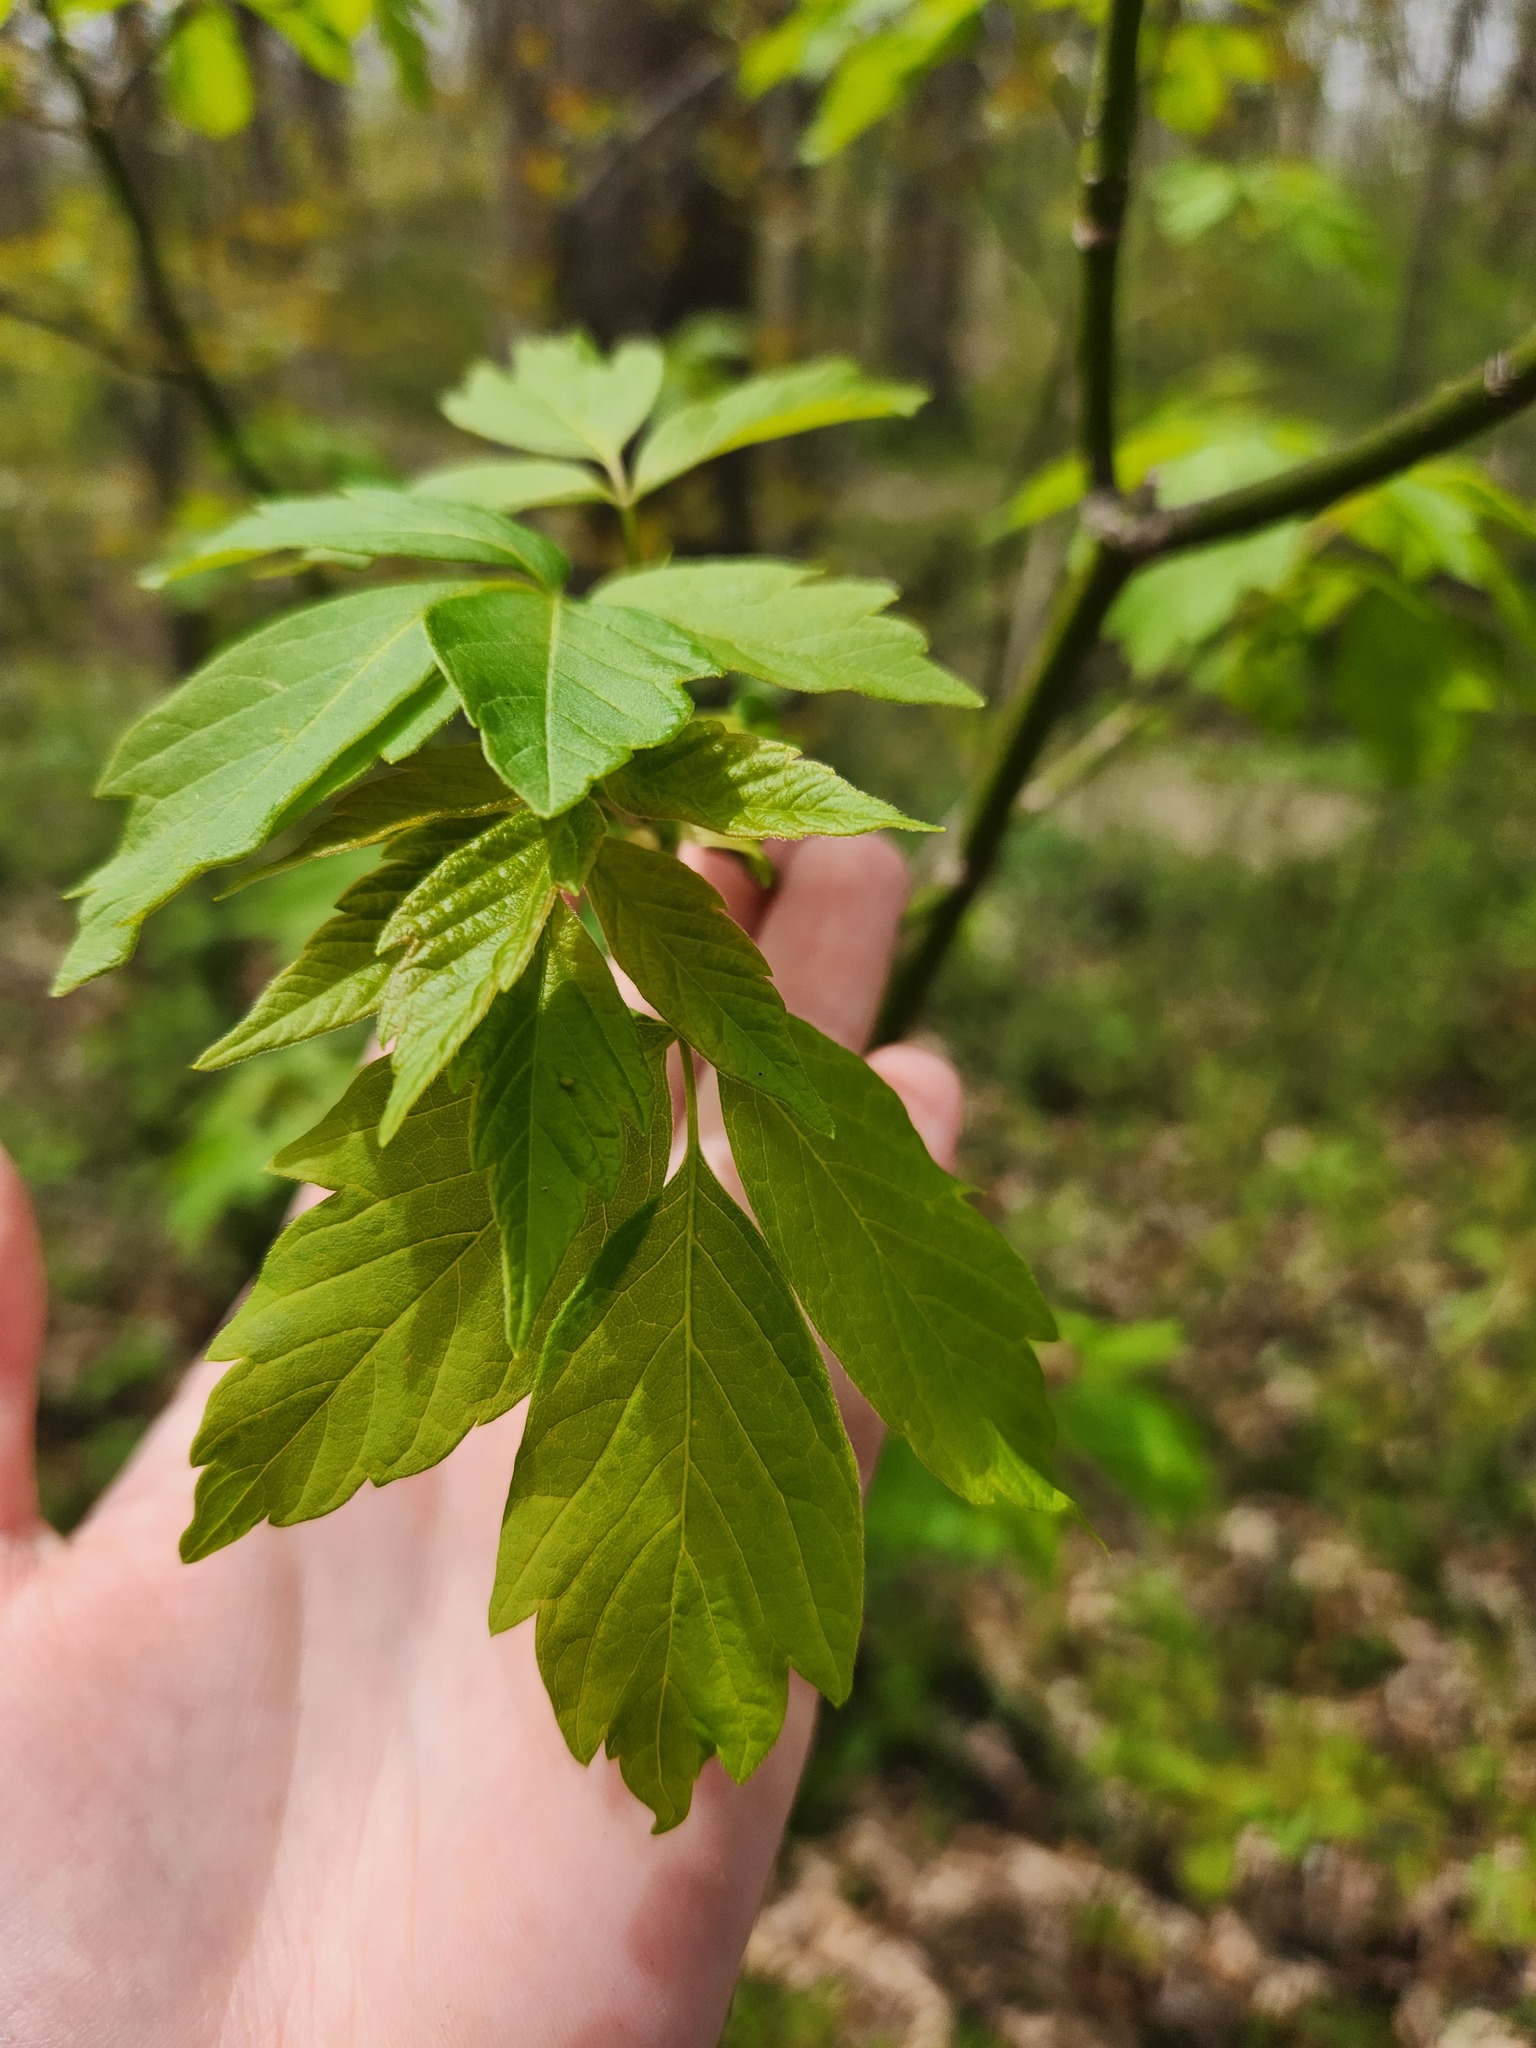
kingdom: Plantae
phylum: Tracheophyta
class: Magnoliopsida
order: Sapindales
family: Sapindaceae
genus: Acer
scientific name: Acer negundo
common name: Ashleaf maple
